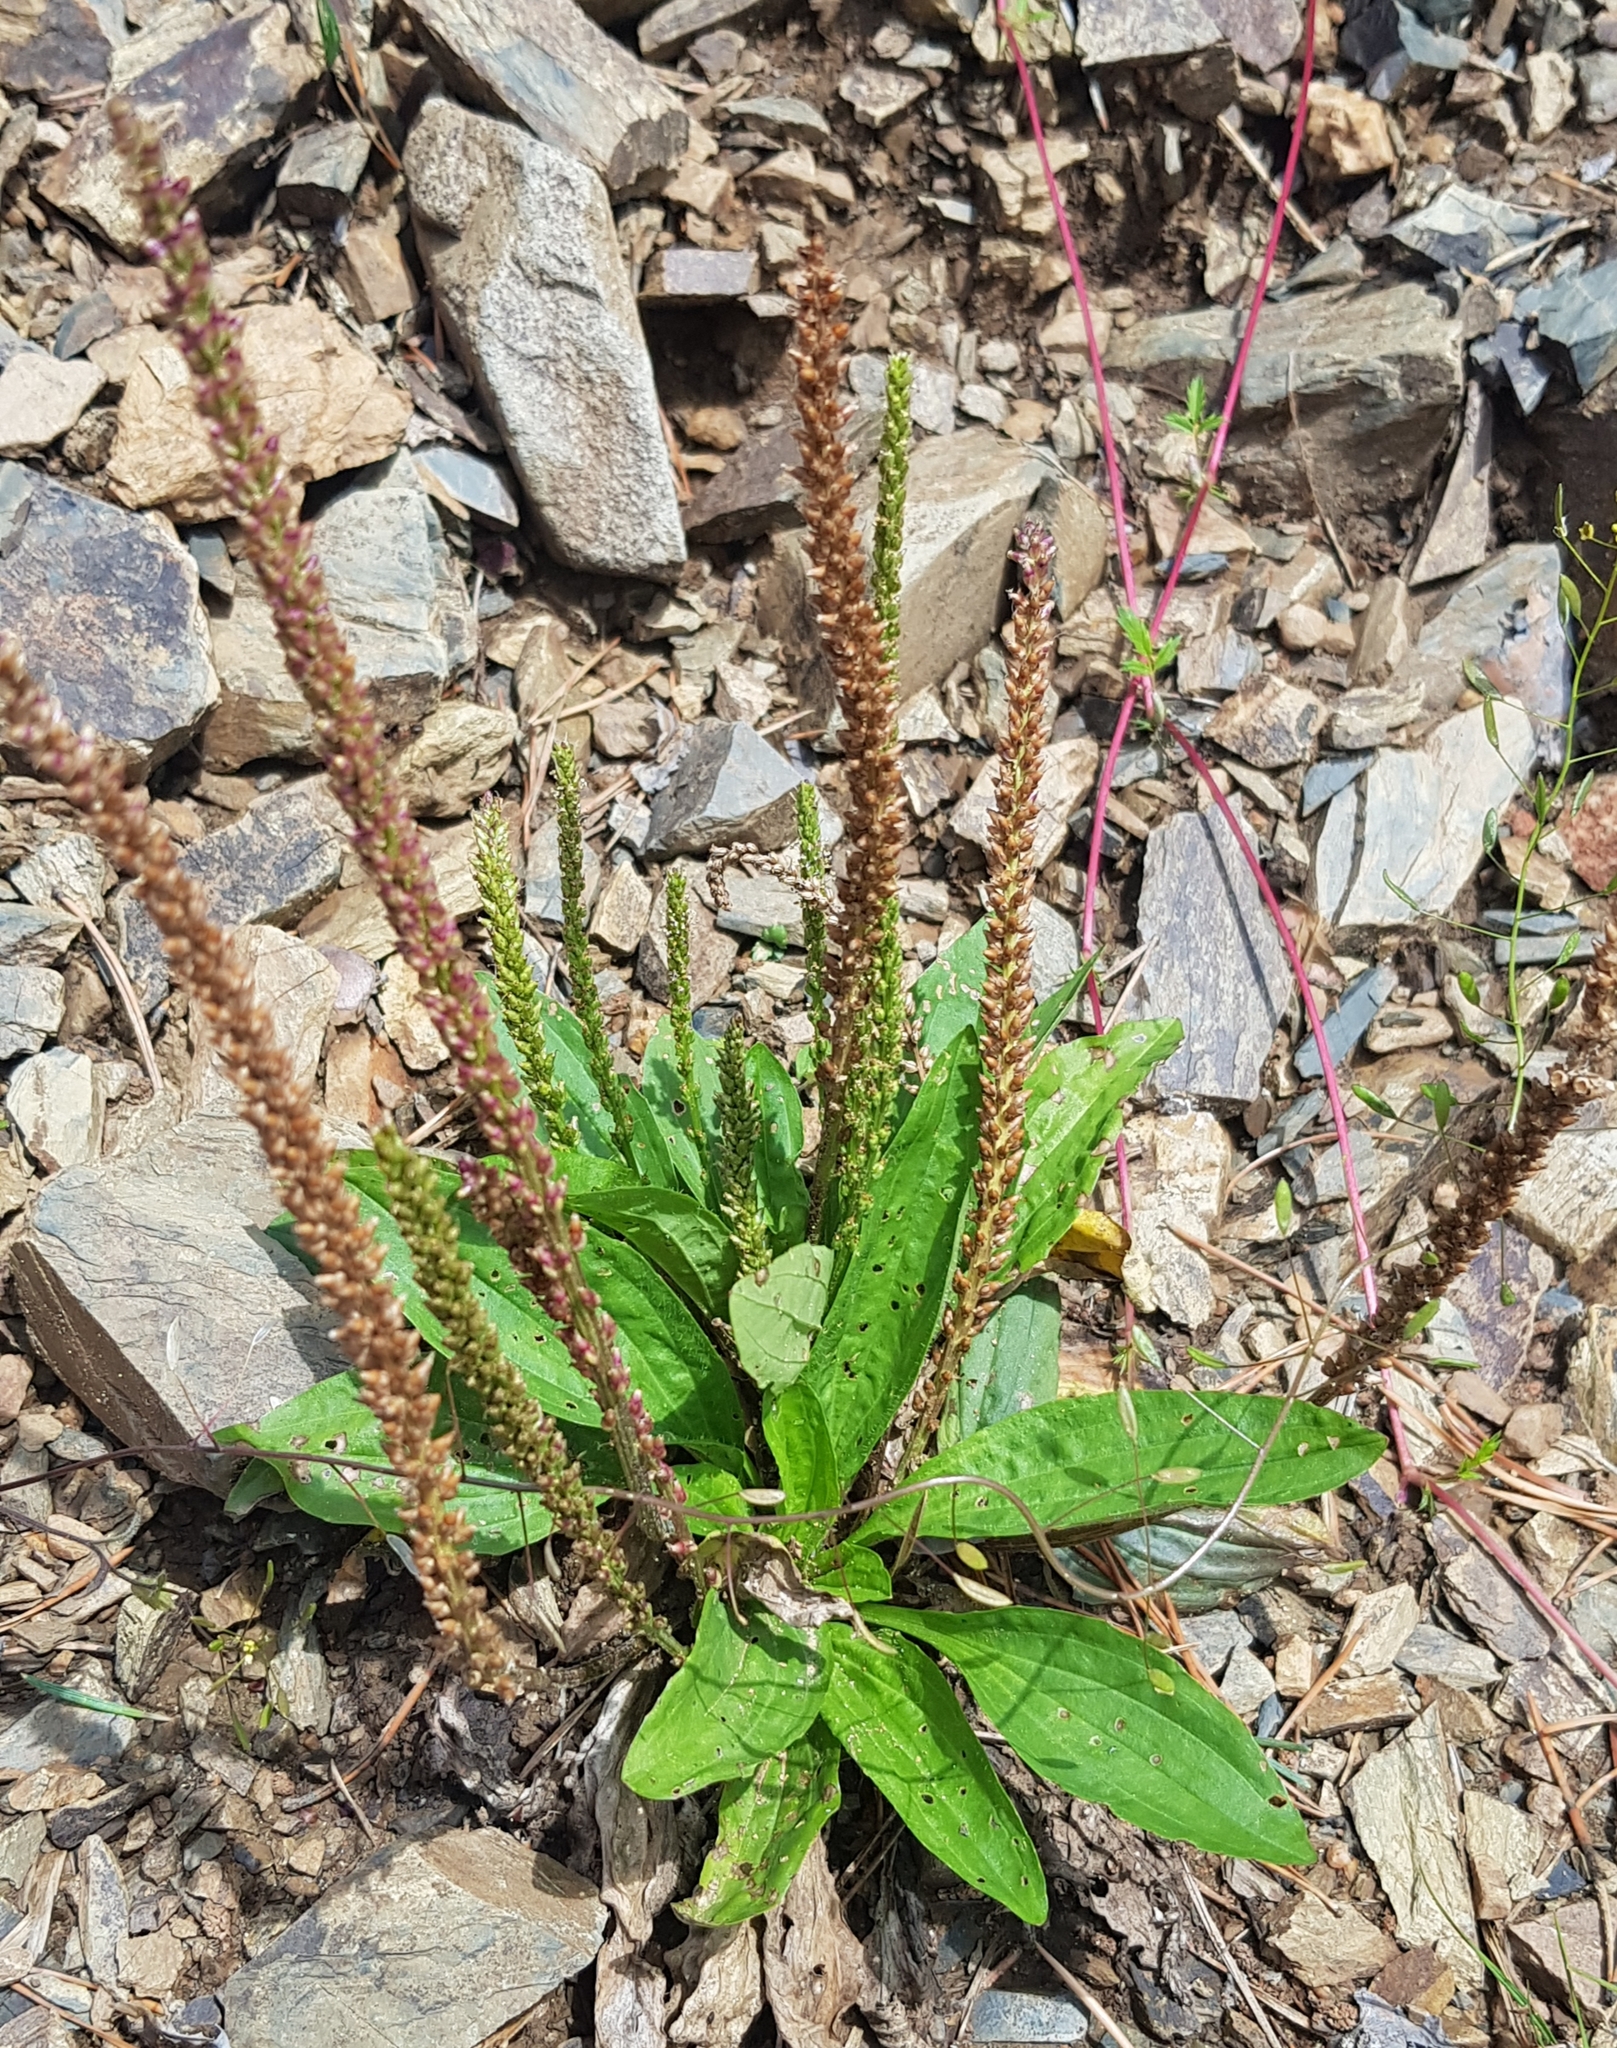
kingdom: Plantae
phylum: Tracheophyta
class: Magnoliopsida
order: Lamiales
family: Plantaginaceae
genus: Plantago
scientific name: Plantago urvillei
